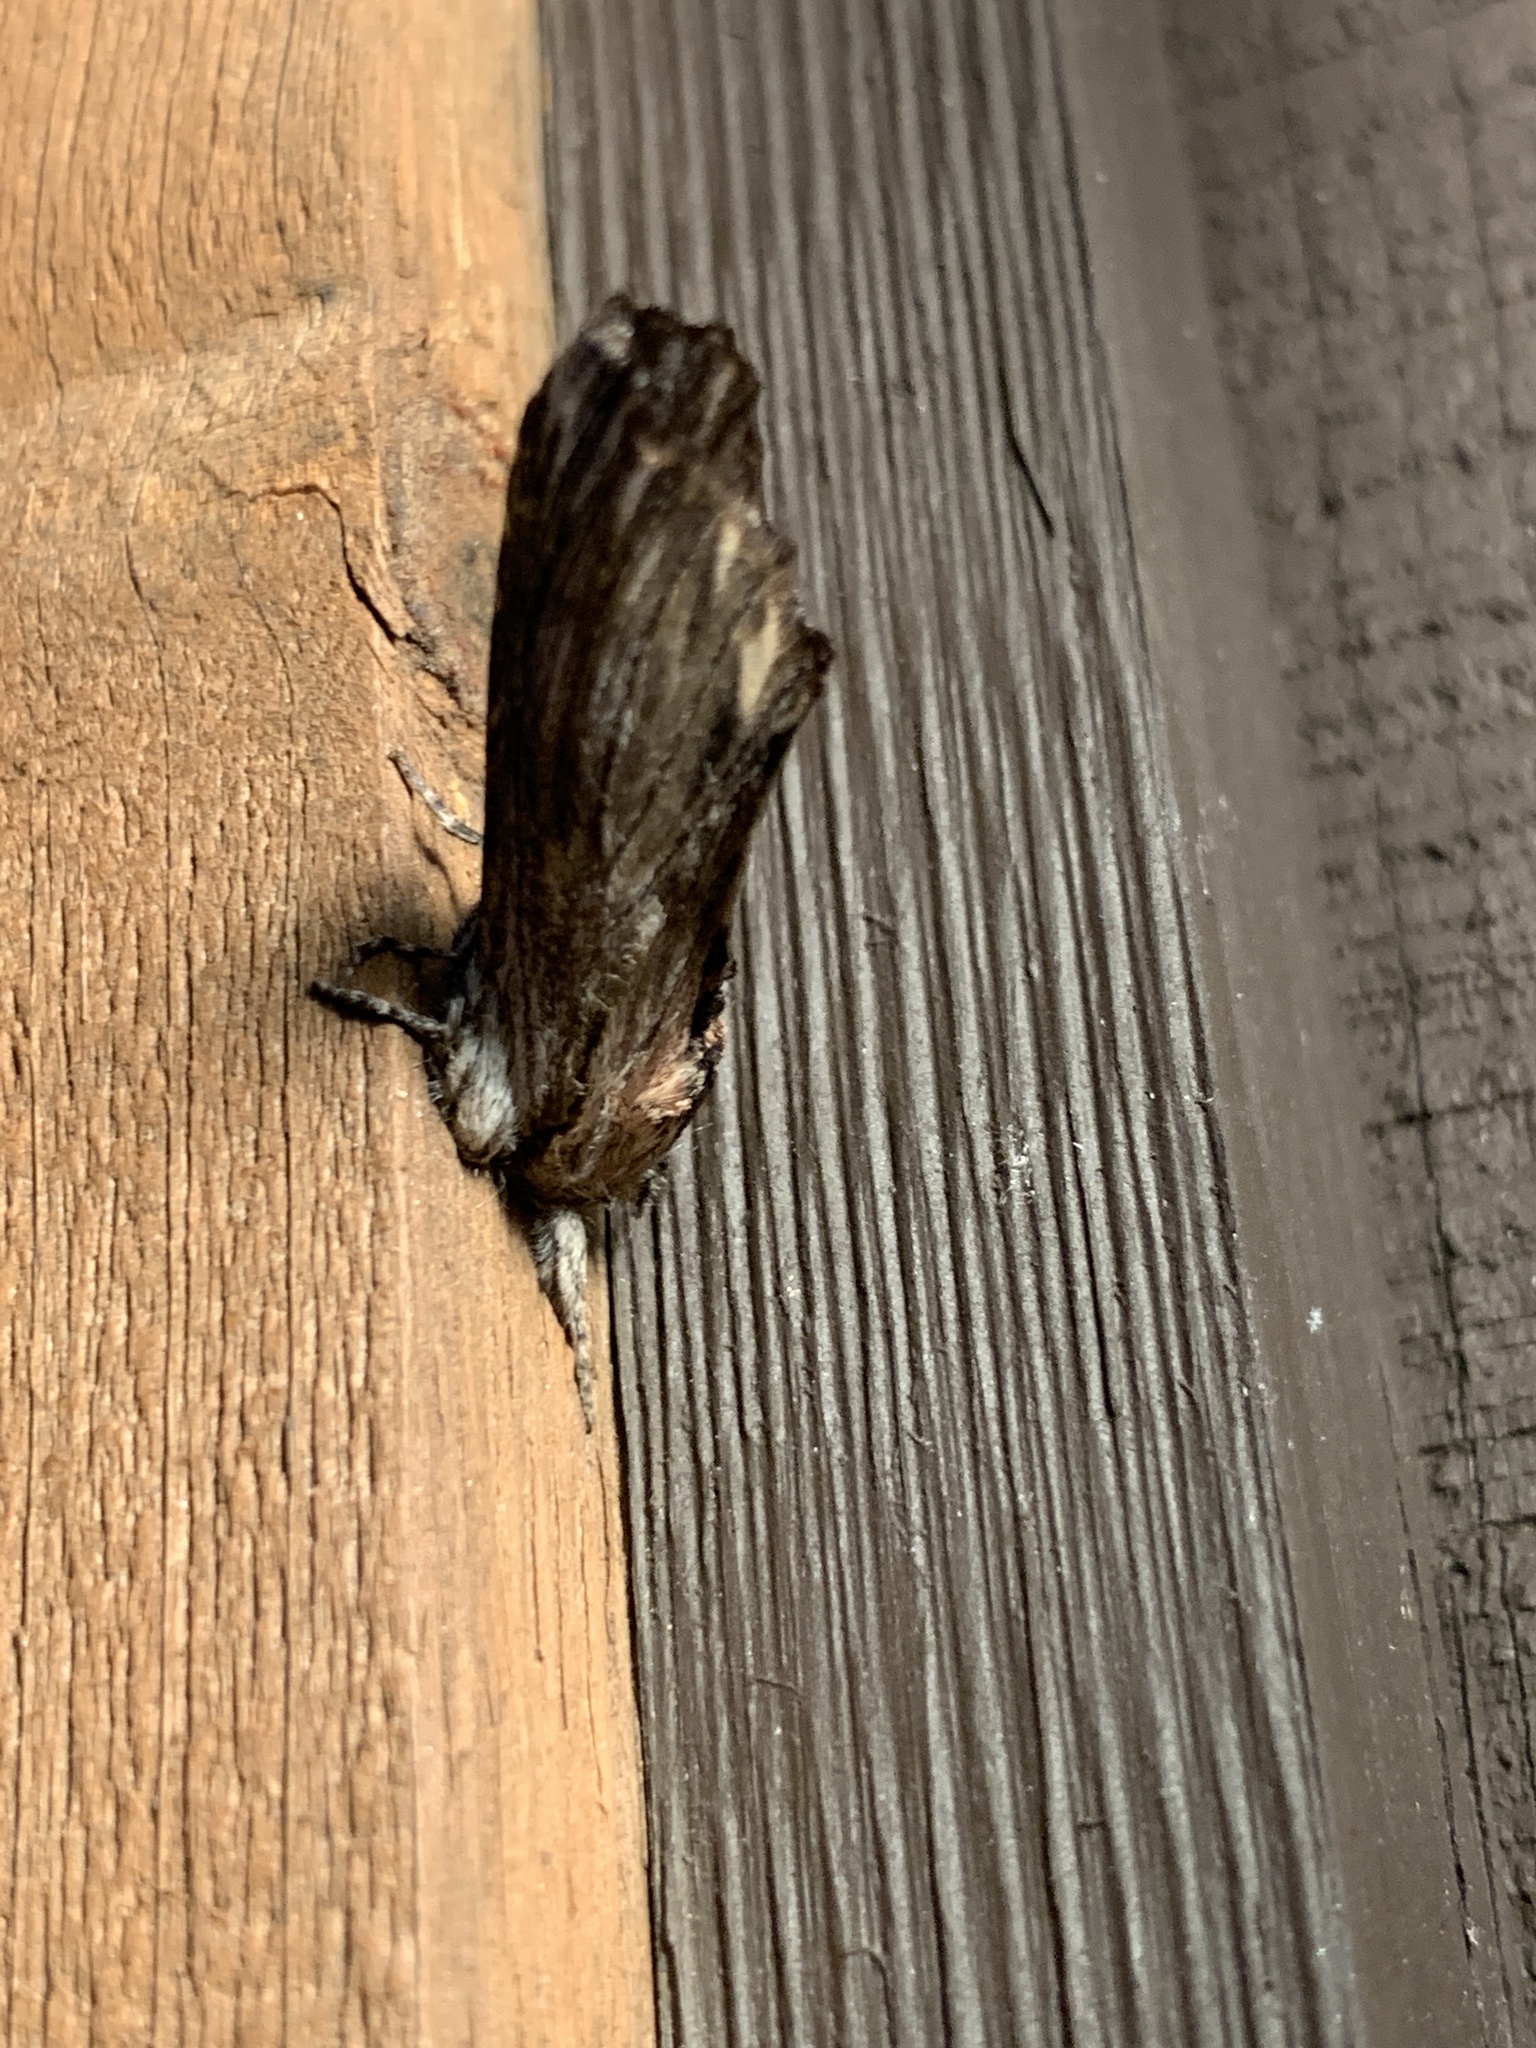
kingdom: Animalia
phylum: Arthropoda
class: Insecta
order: Lepidoptera
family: Notodontidae
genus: Oligocentria
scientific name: Oligocentria Ianassa lignicolor
